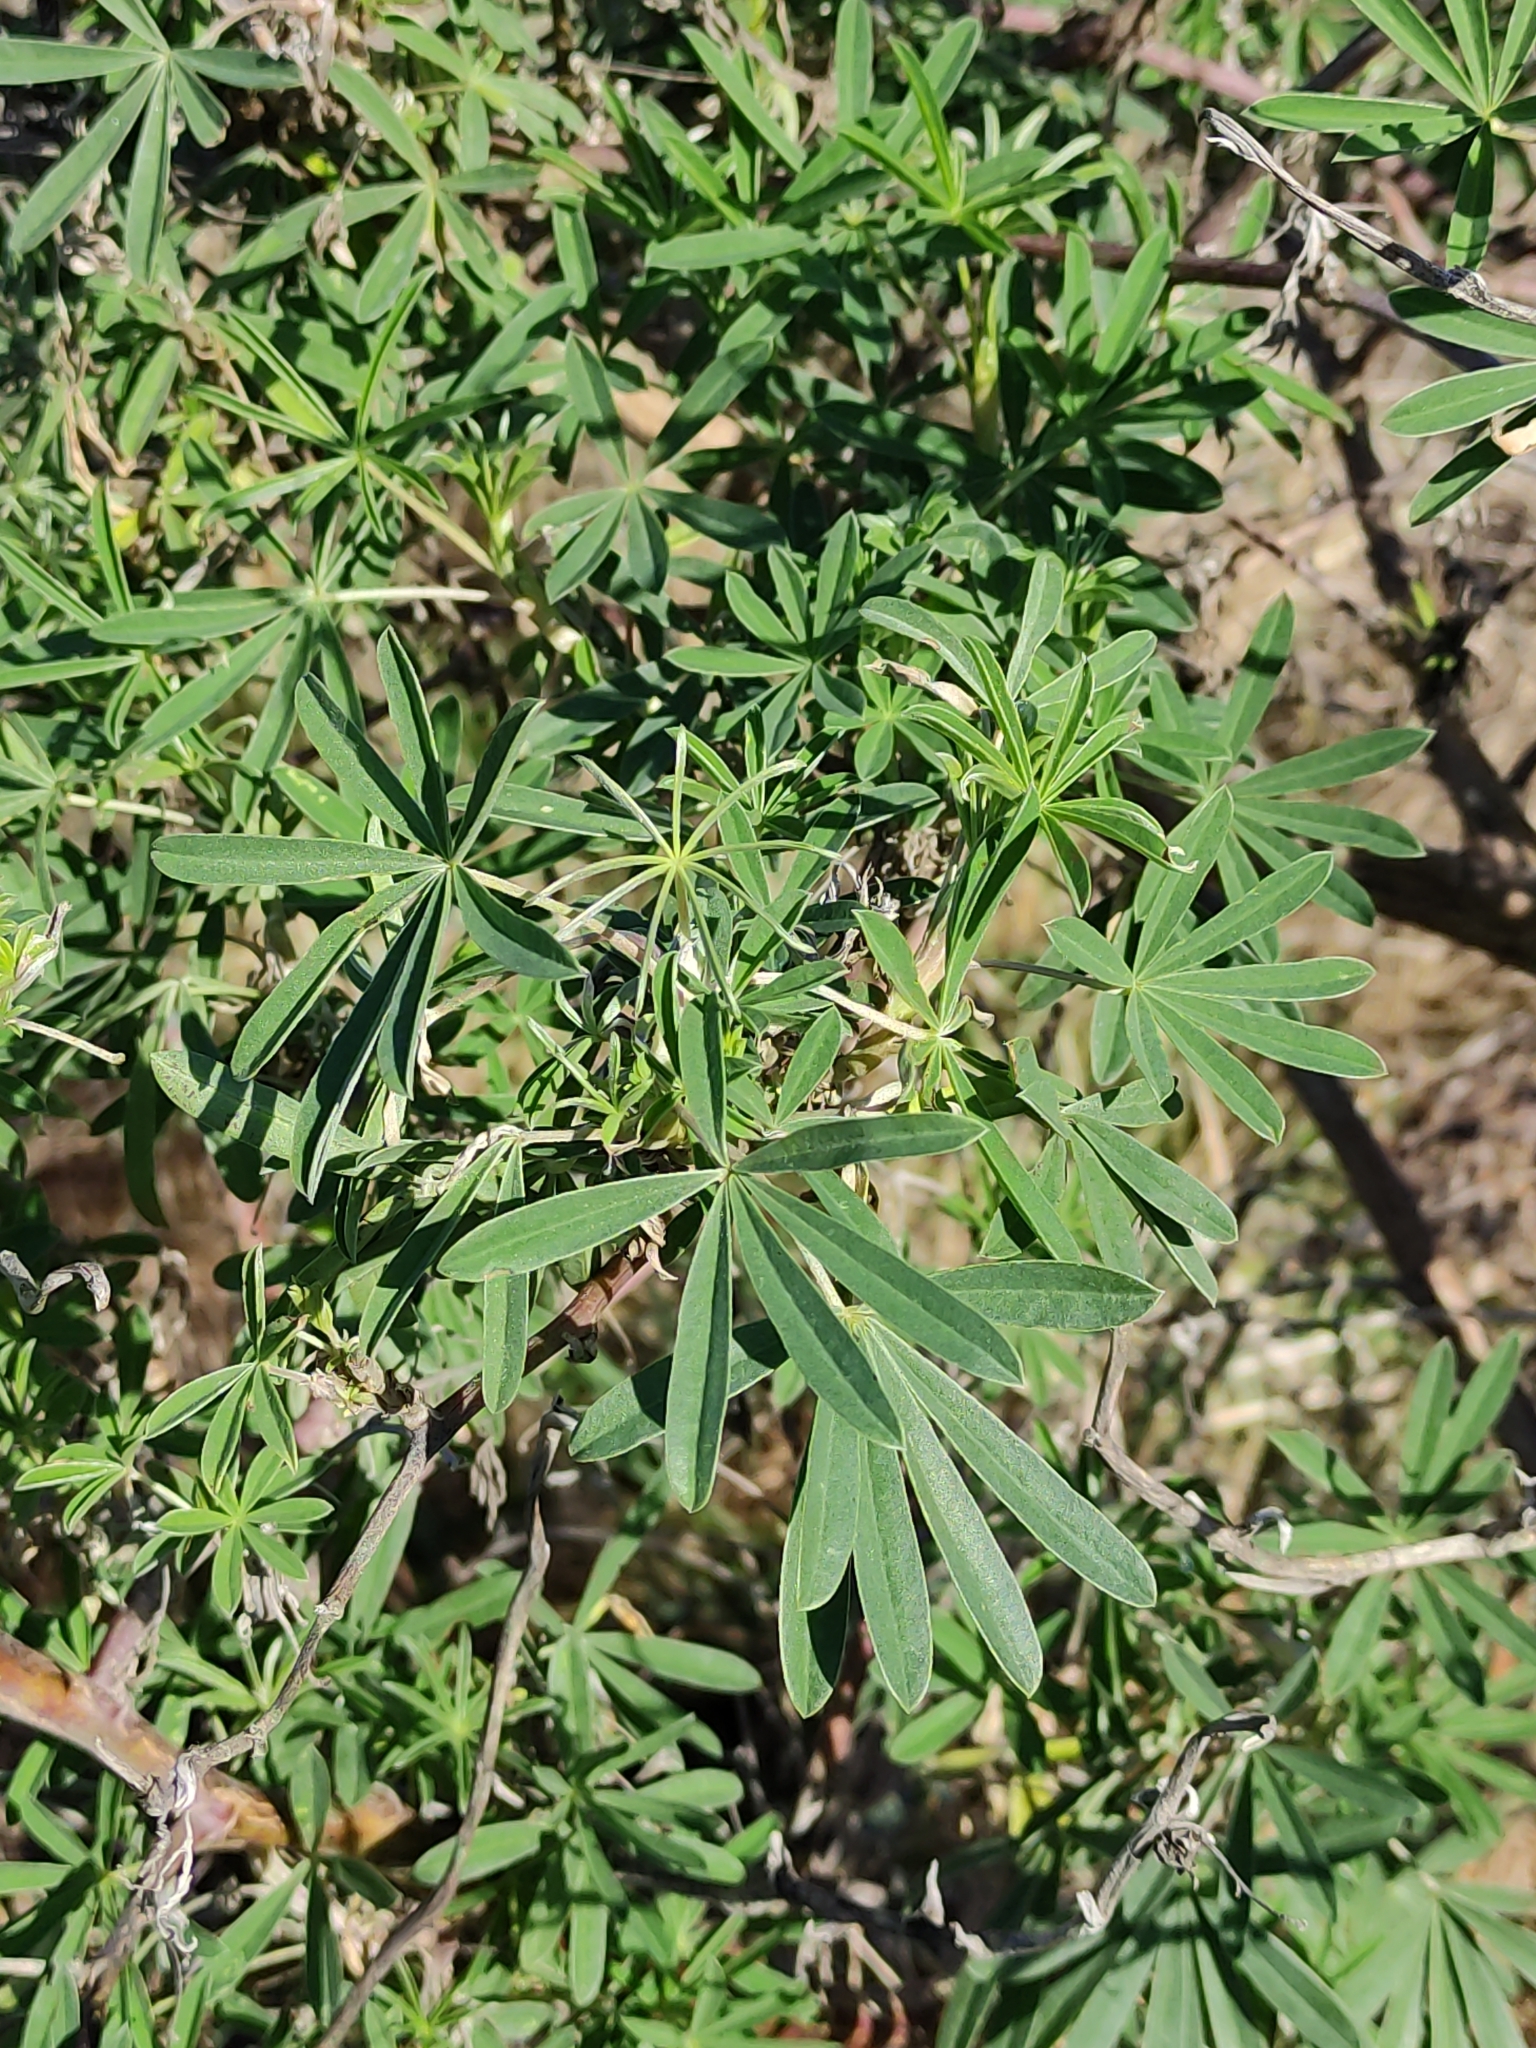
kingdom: Plantae
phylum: Tracheophyta
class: Magnoliopsida
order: Fabales
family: Fabaceae
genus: Lupinus
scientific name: Lupinus arboreus
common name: Yellow bush lupine
